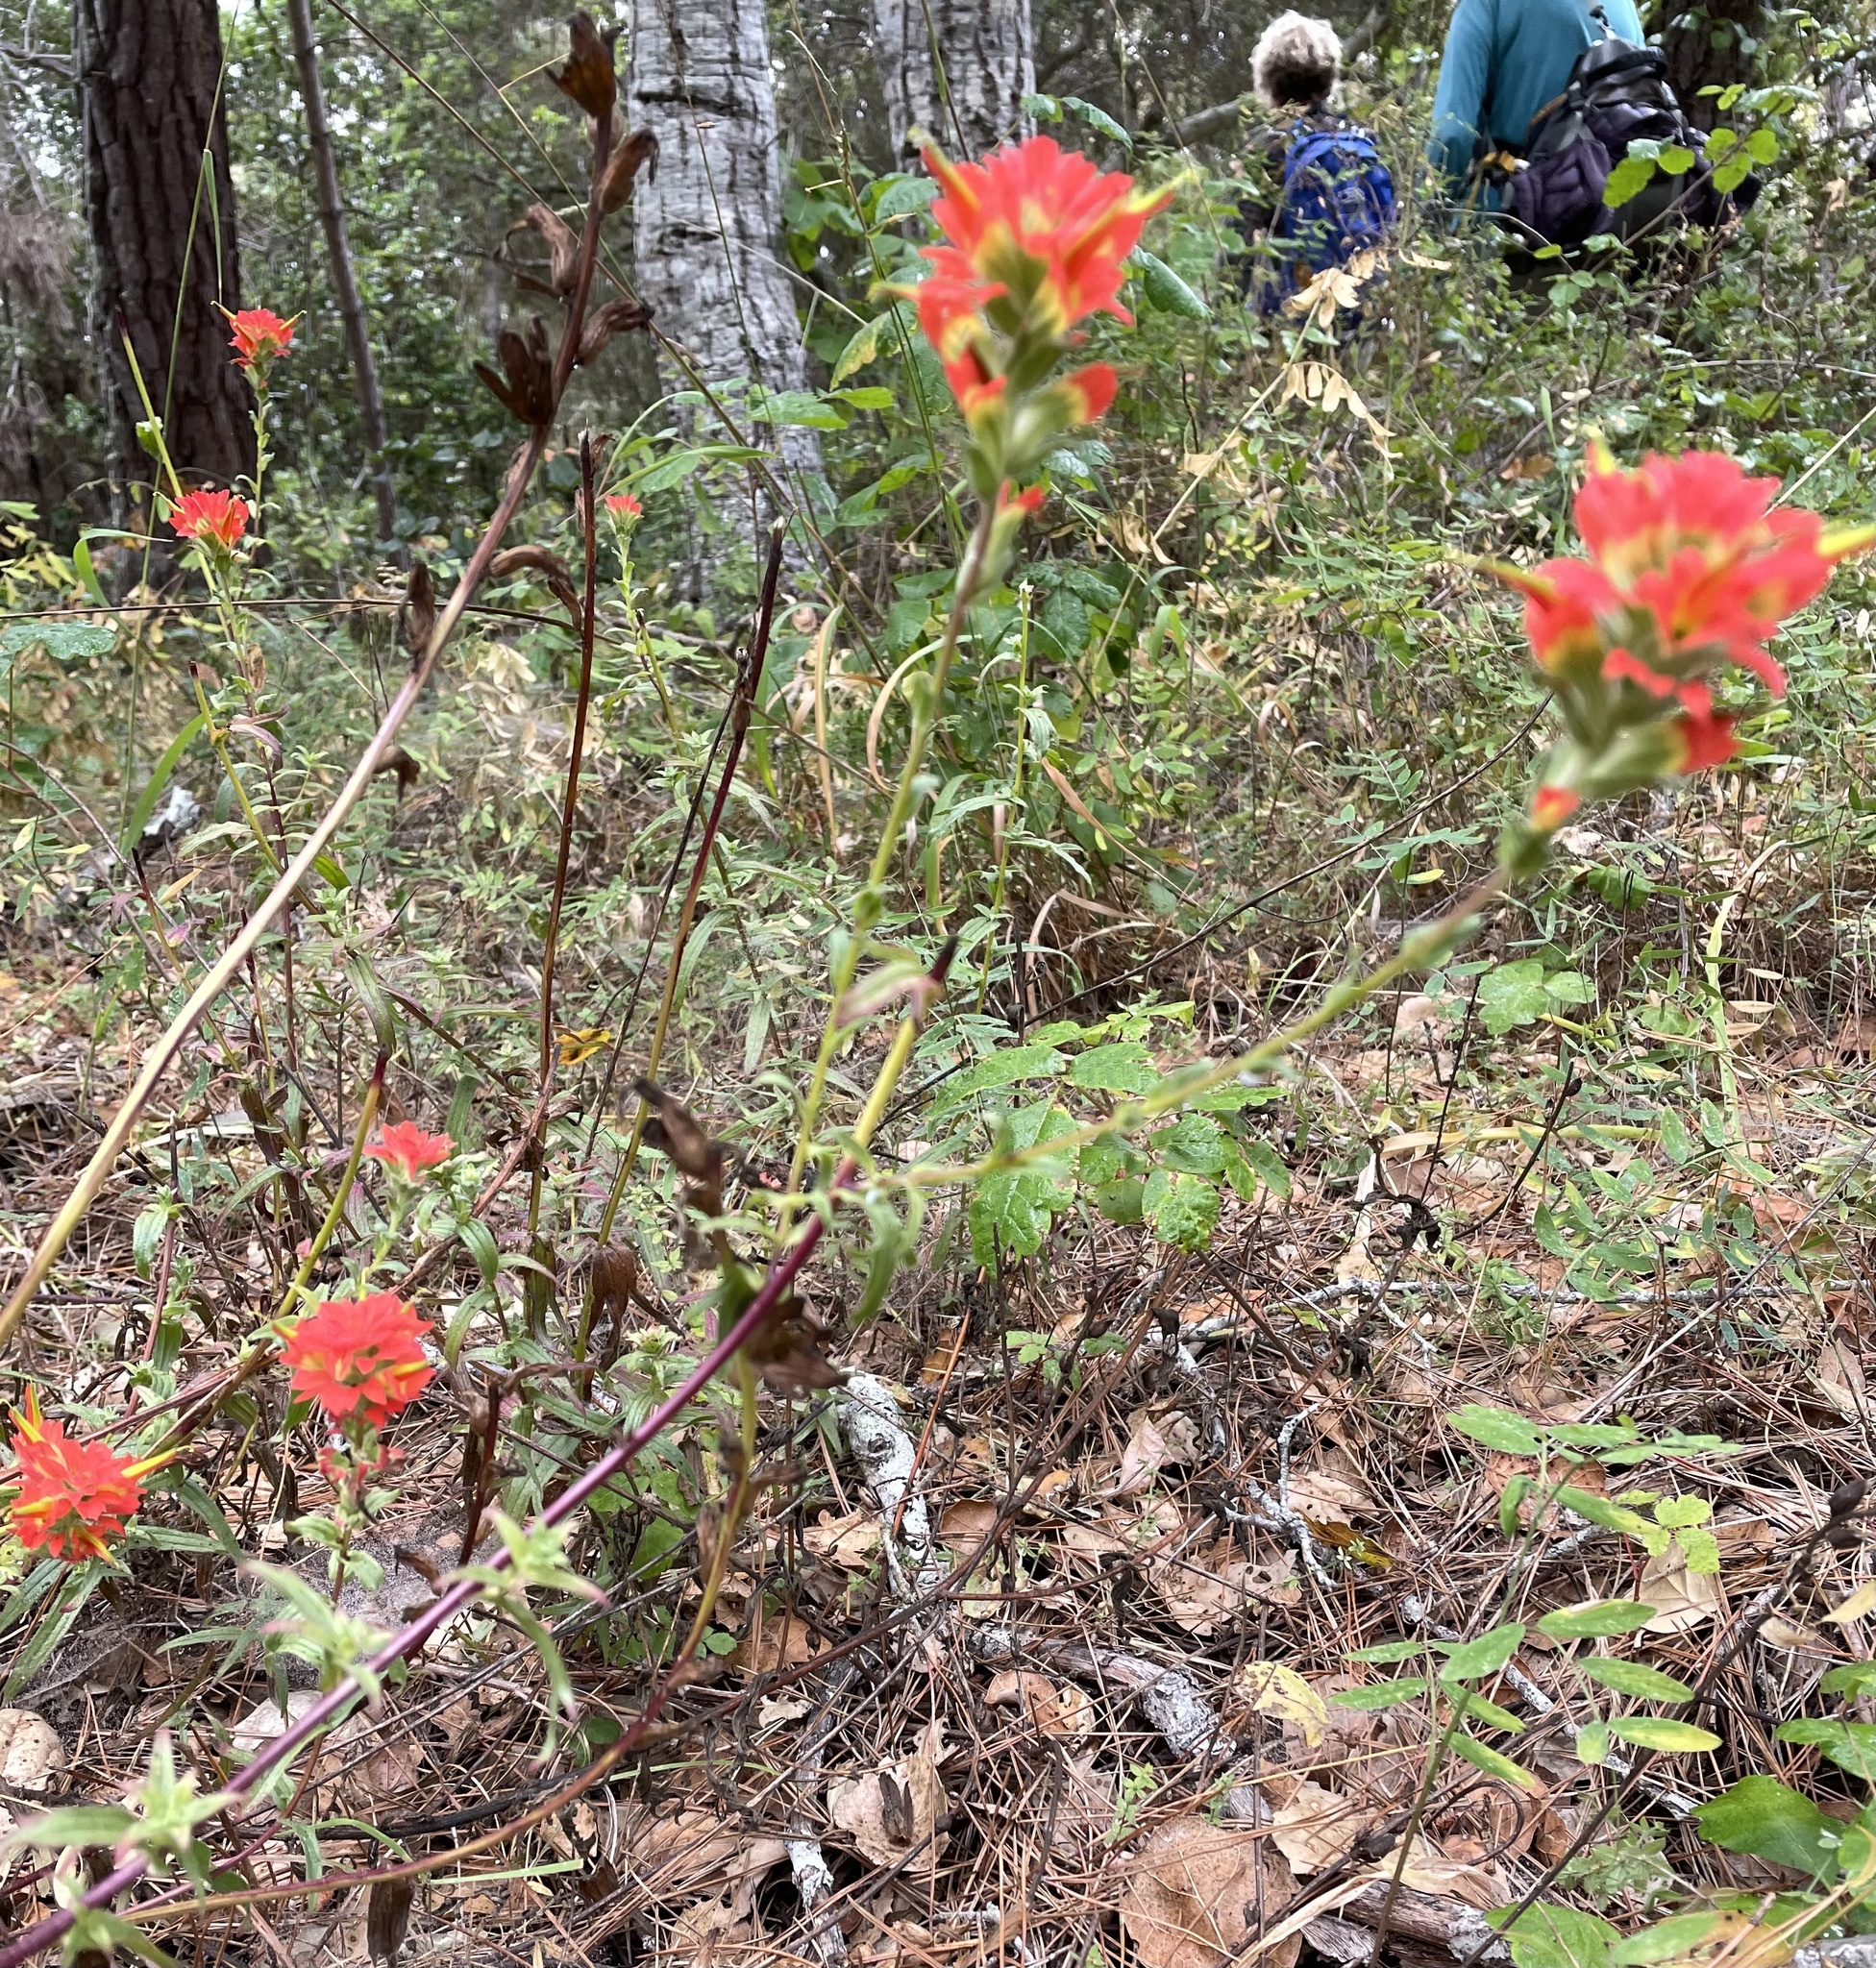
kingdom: Plantae
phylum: Tracheophyta
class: Magnoliopsida
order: Lamiales
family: Orobanchaceae
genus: Castilleja
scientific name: Castilleja affinis
